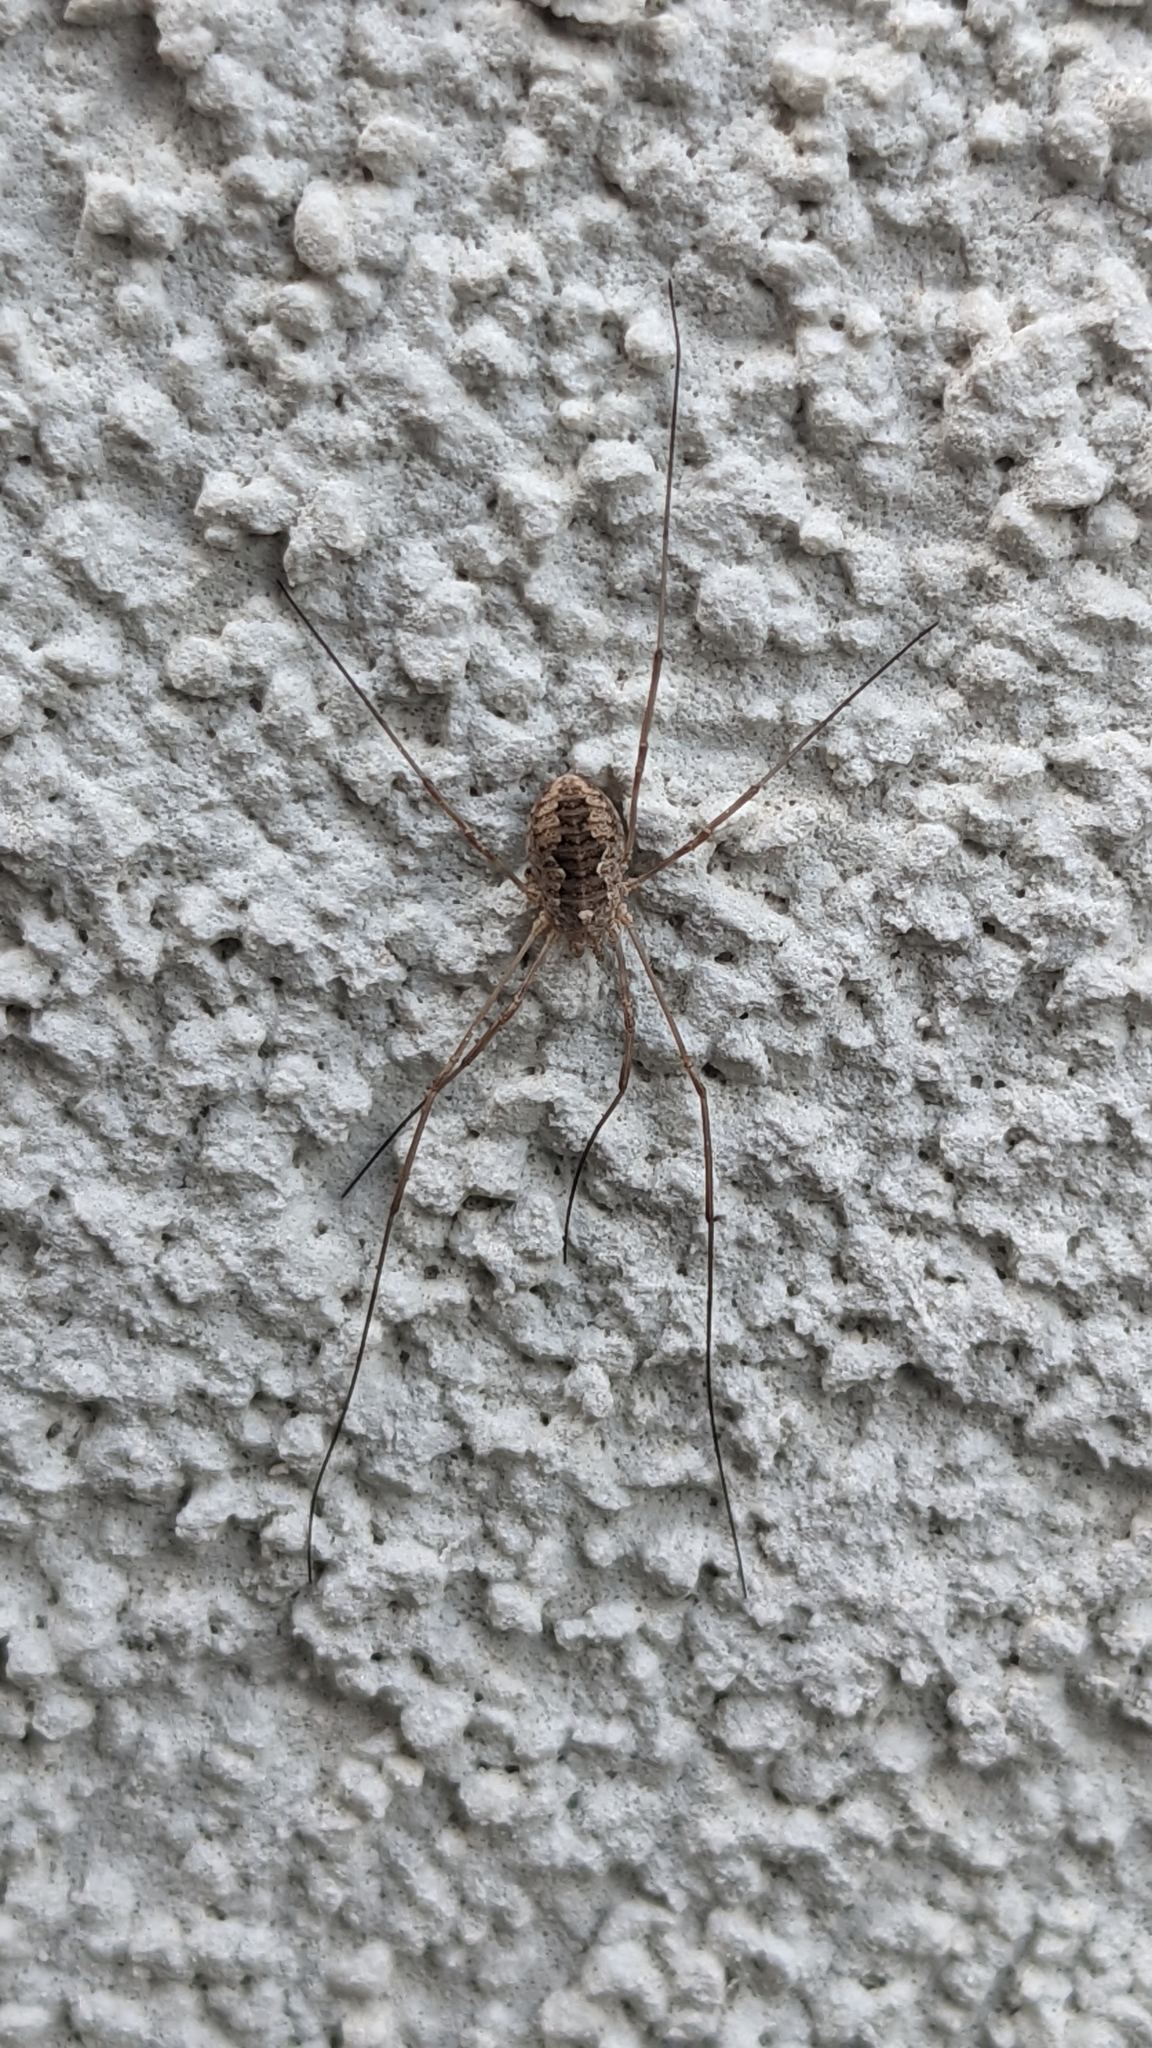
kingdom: Animalia
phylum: Arthropoda
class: Arachnida
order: Opiliones
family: Phalangiidae
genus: Phalangium
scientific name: Phalangium opilio
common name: Daddy longleg
